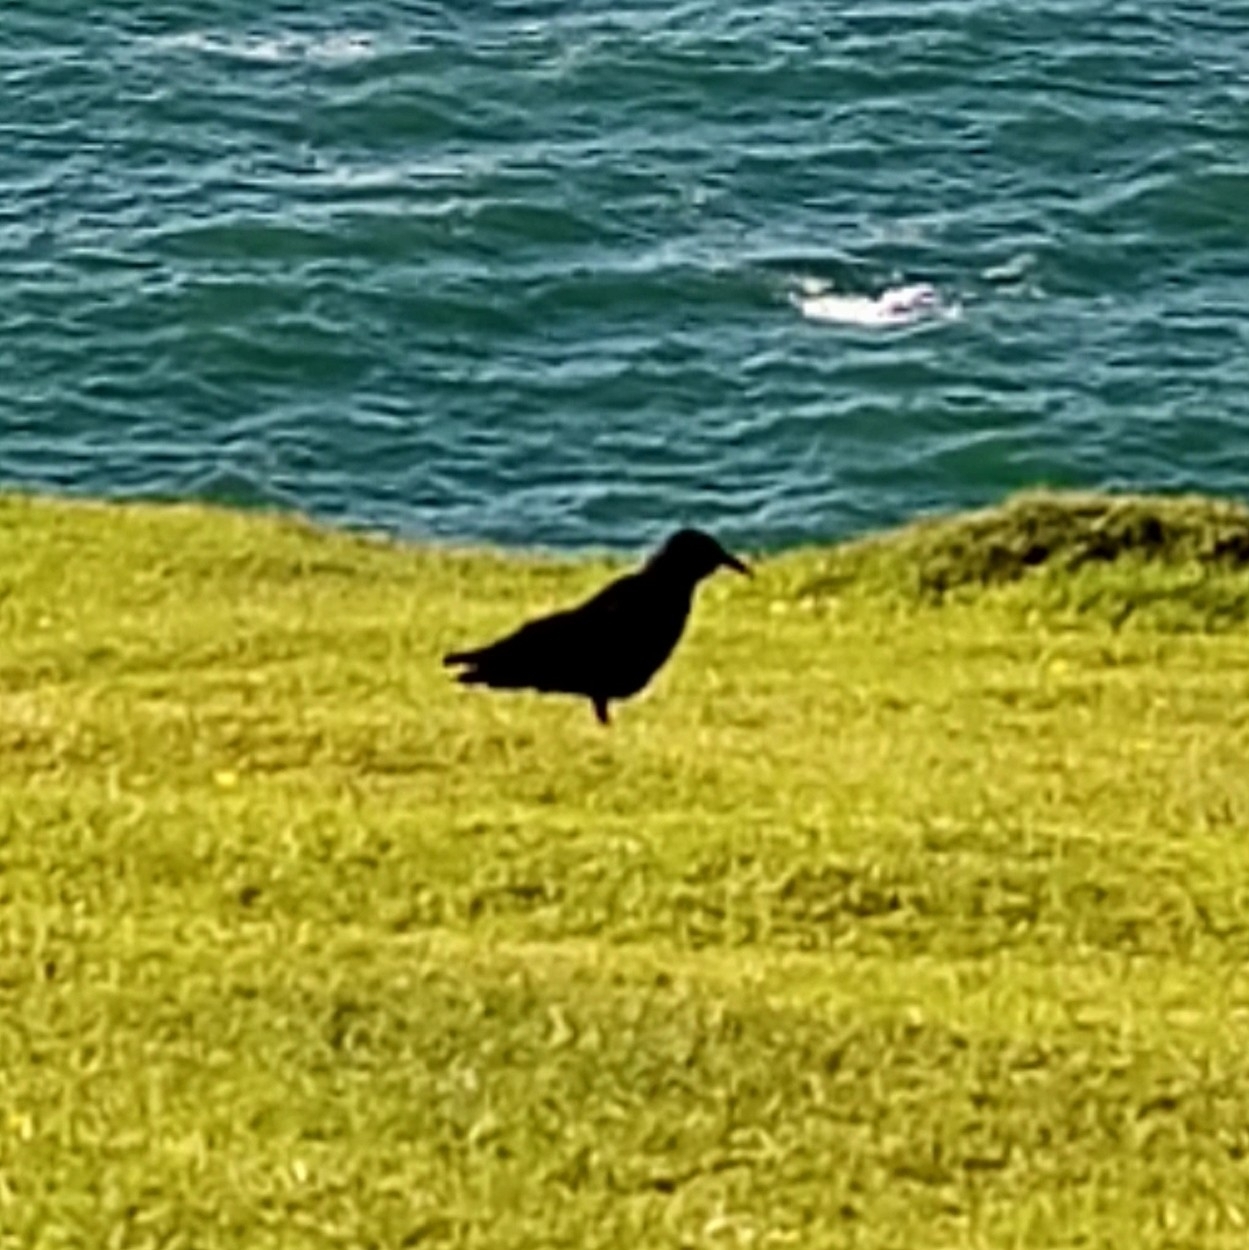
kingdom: Animalia
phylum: Chordata
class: Aves
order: Passeriformes
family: Corvidae
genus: Pyrrhocorax
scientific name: Pyrrhocorax pyrrhocorax
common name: Red-billed chough
